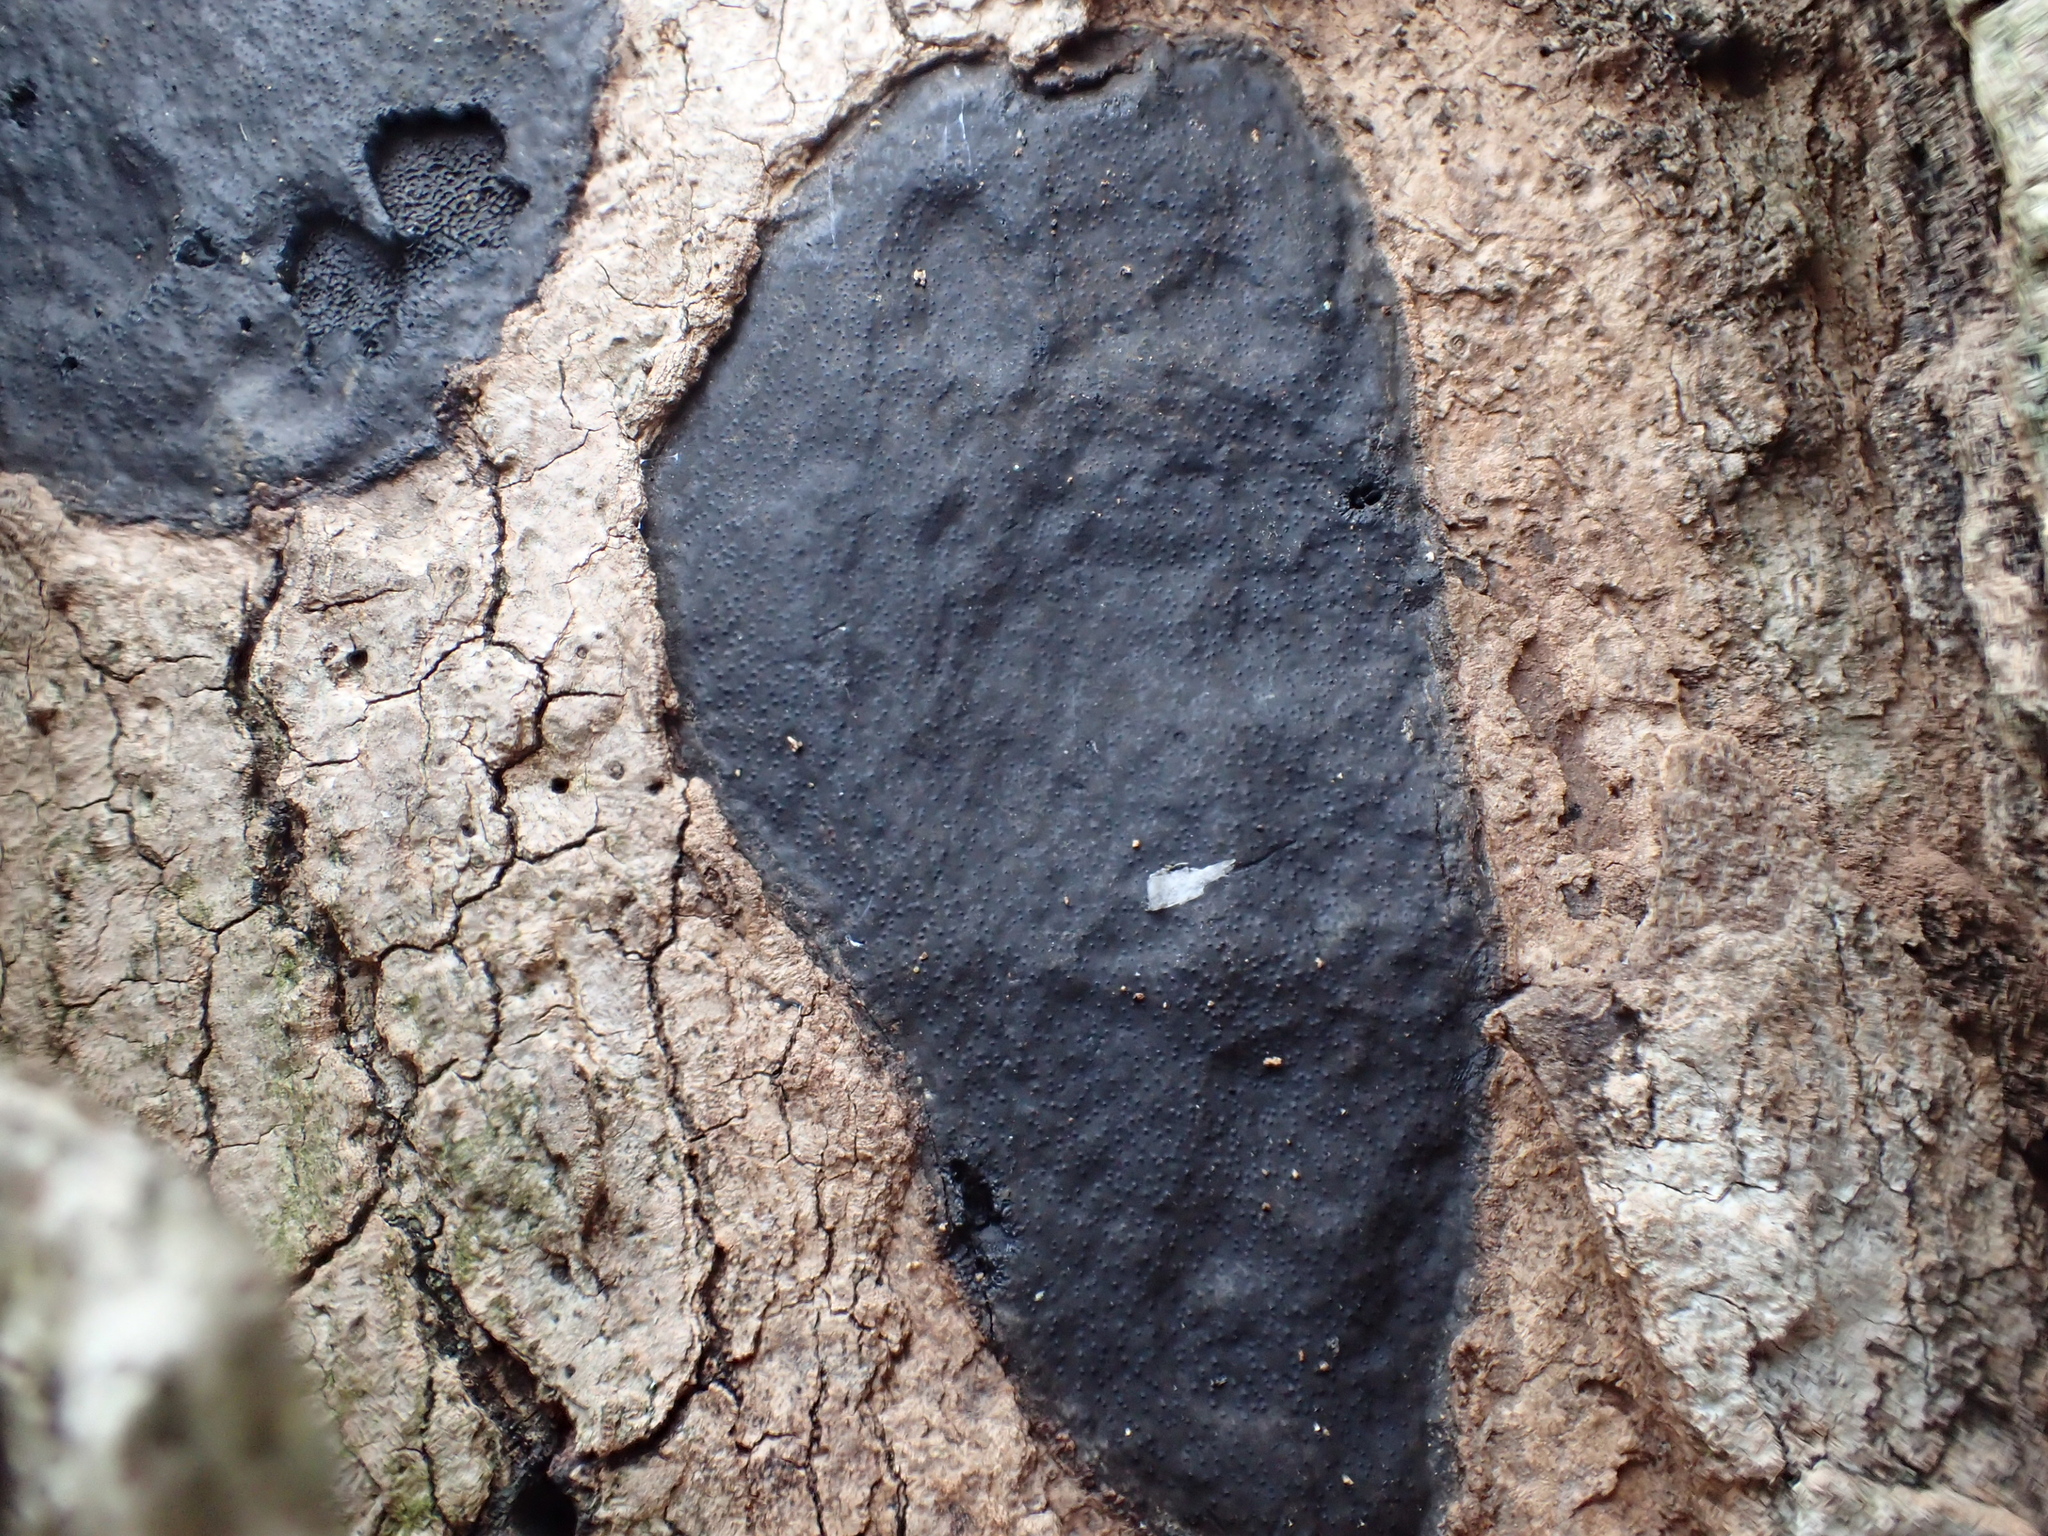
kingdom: Fungi
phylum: Ascomycota
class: Sordariomycetes
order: Xylariales
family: Diatrypaceae
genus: Diatrype
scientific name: Diatrype stigma
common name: Common tarcrust
